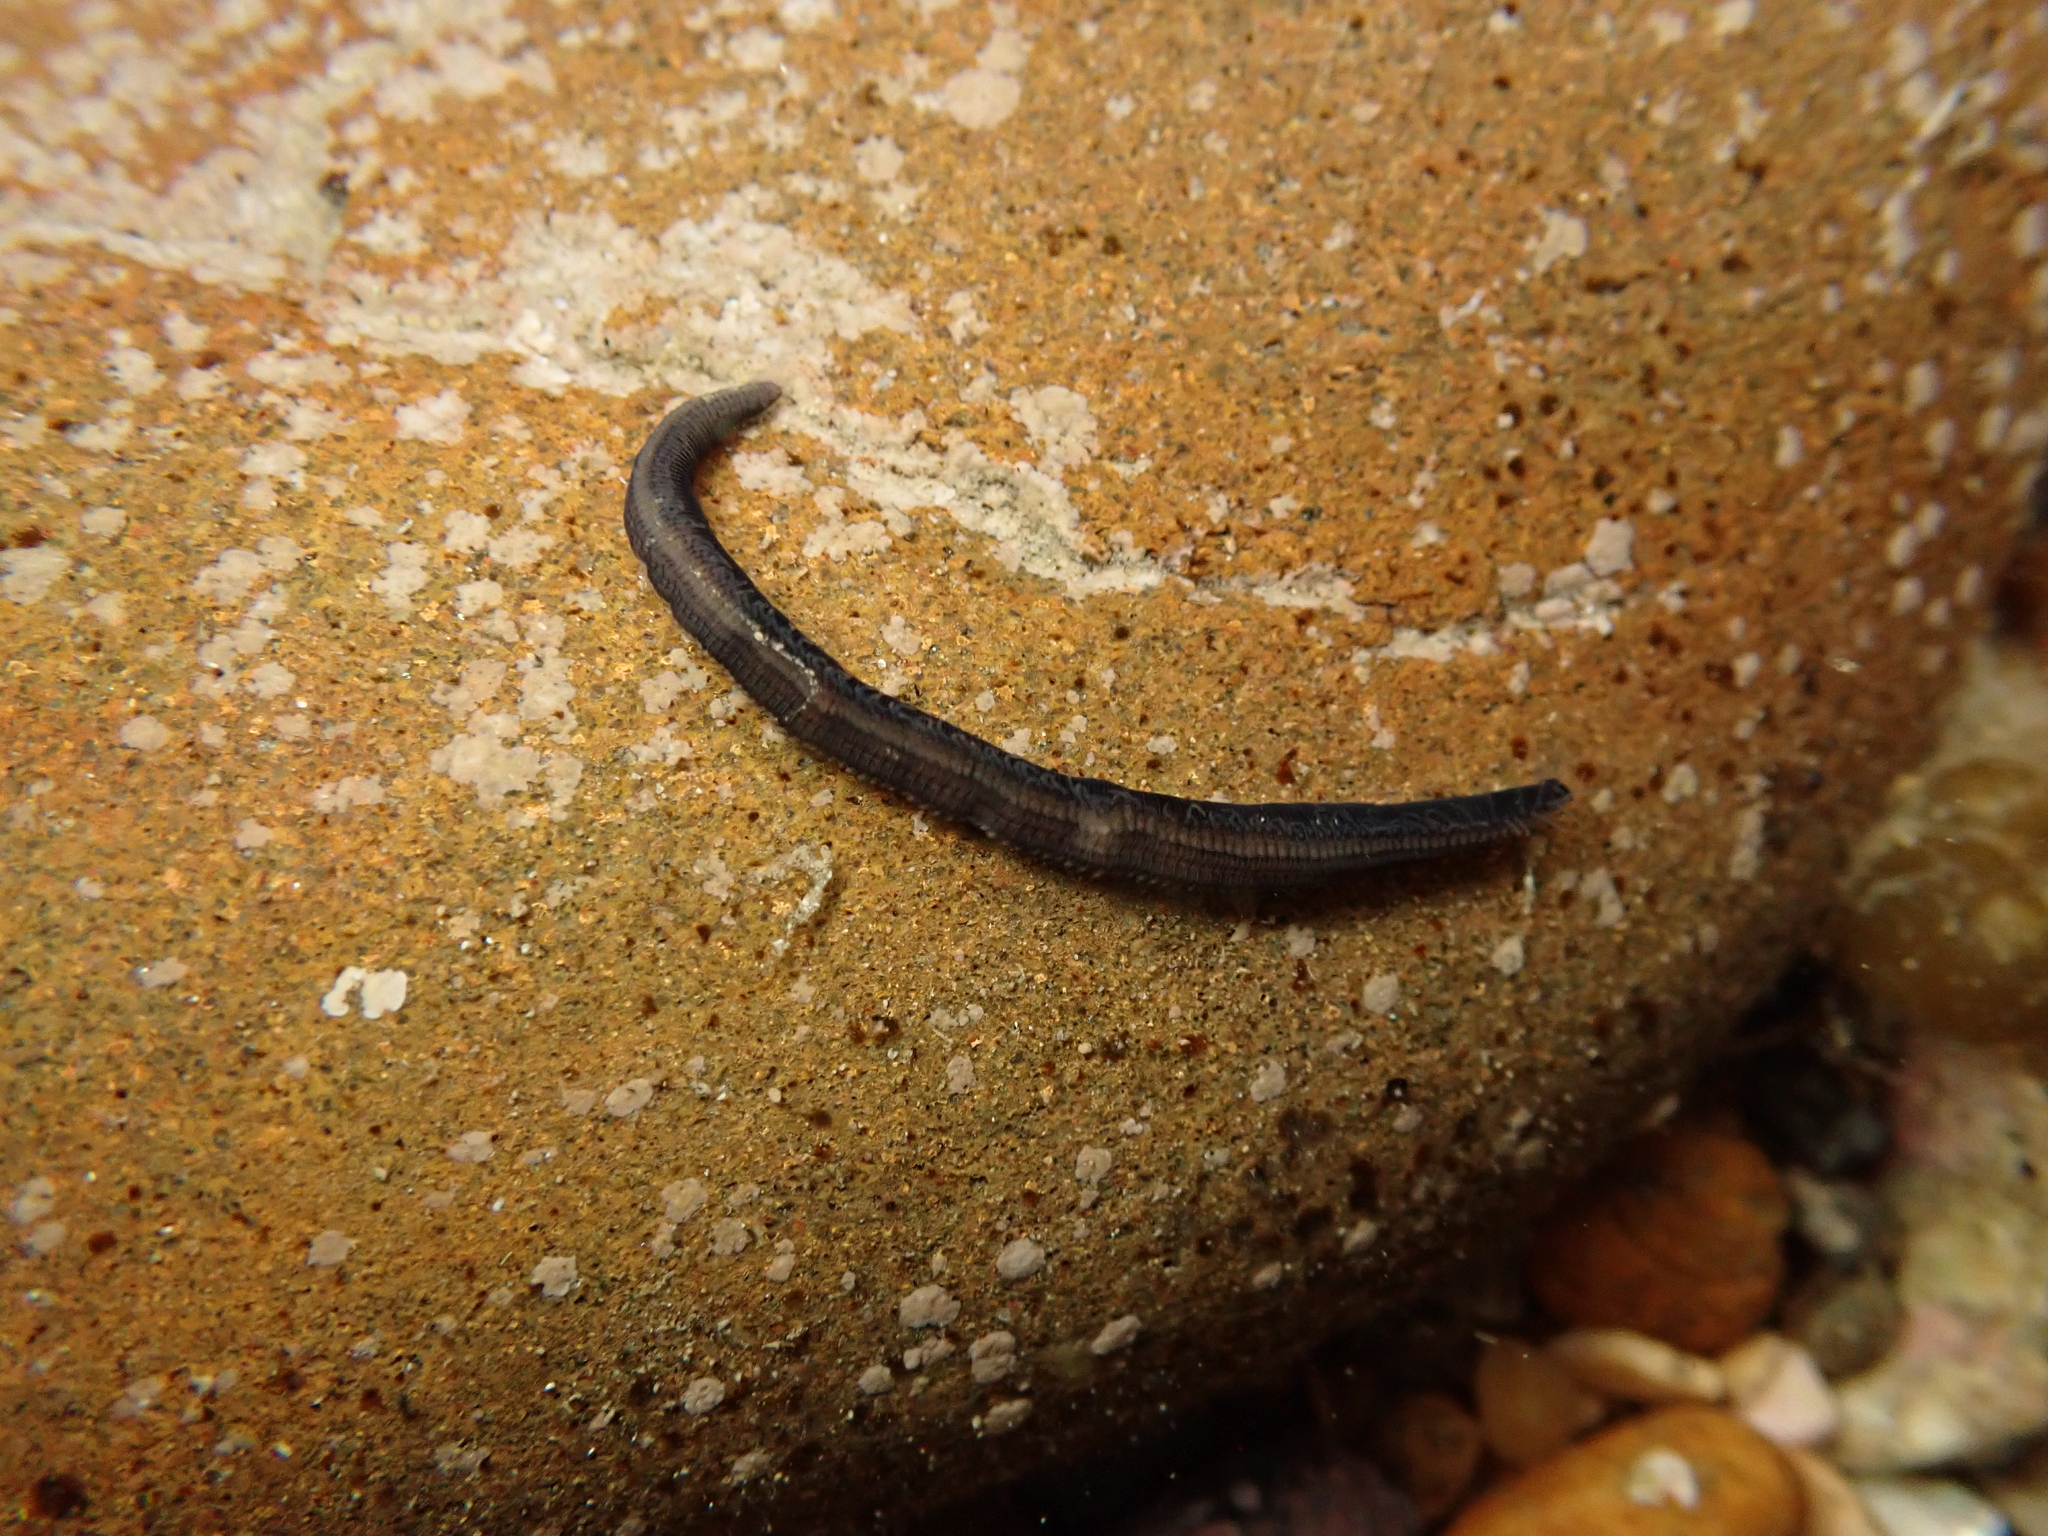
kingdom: Animalia
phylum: Annelida
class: Polychaeta
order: Phyllodocida
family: Syllidae
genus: Odontosyllis
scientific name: Odontosyllis polycera
